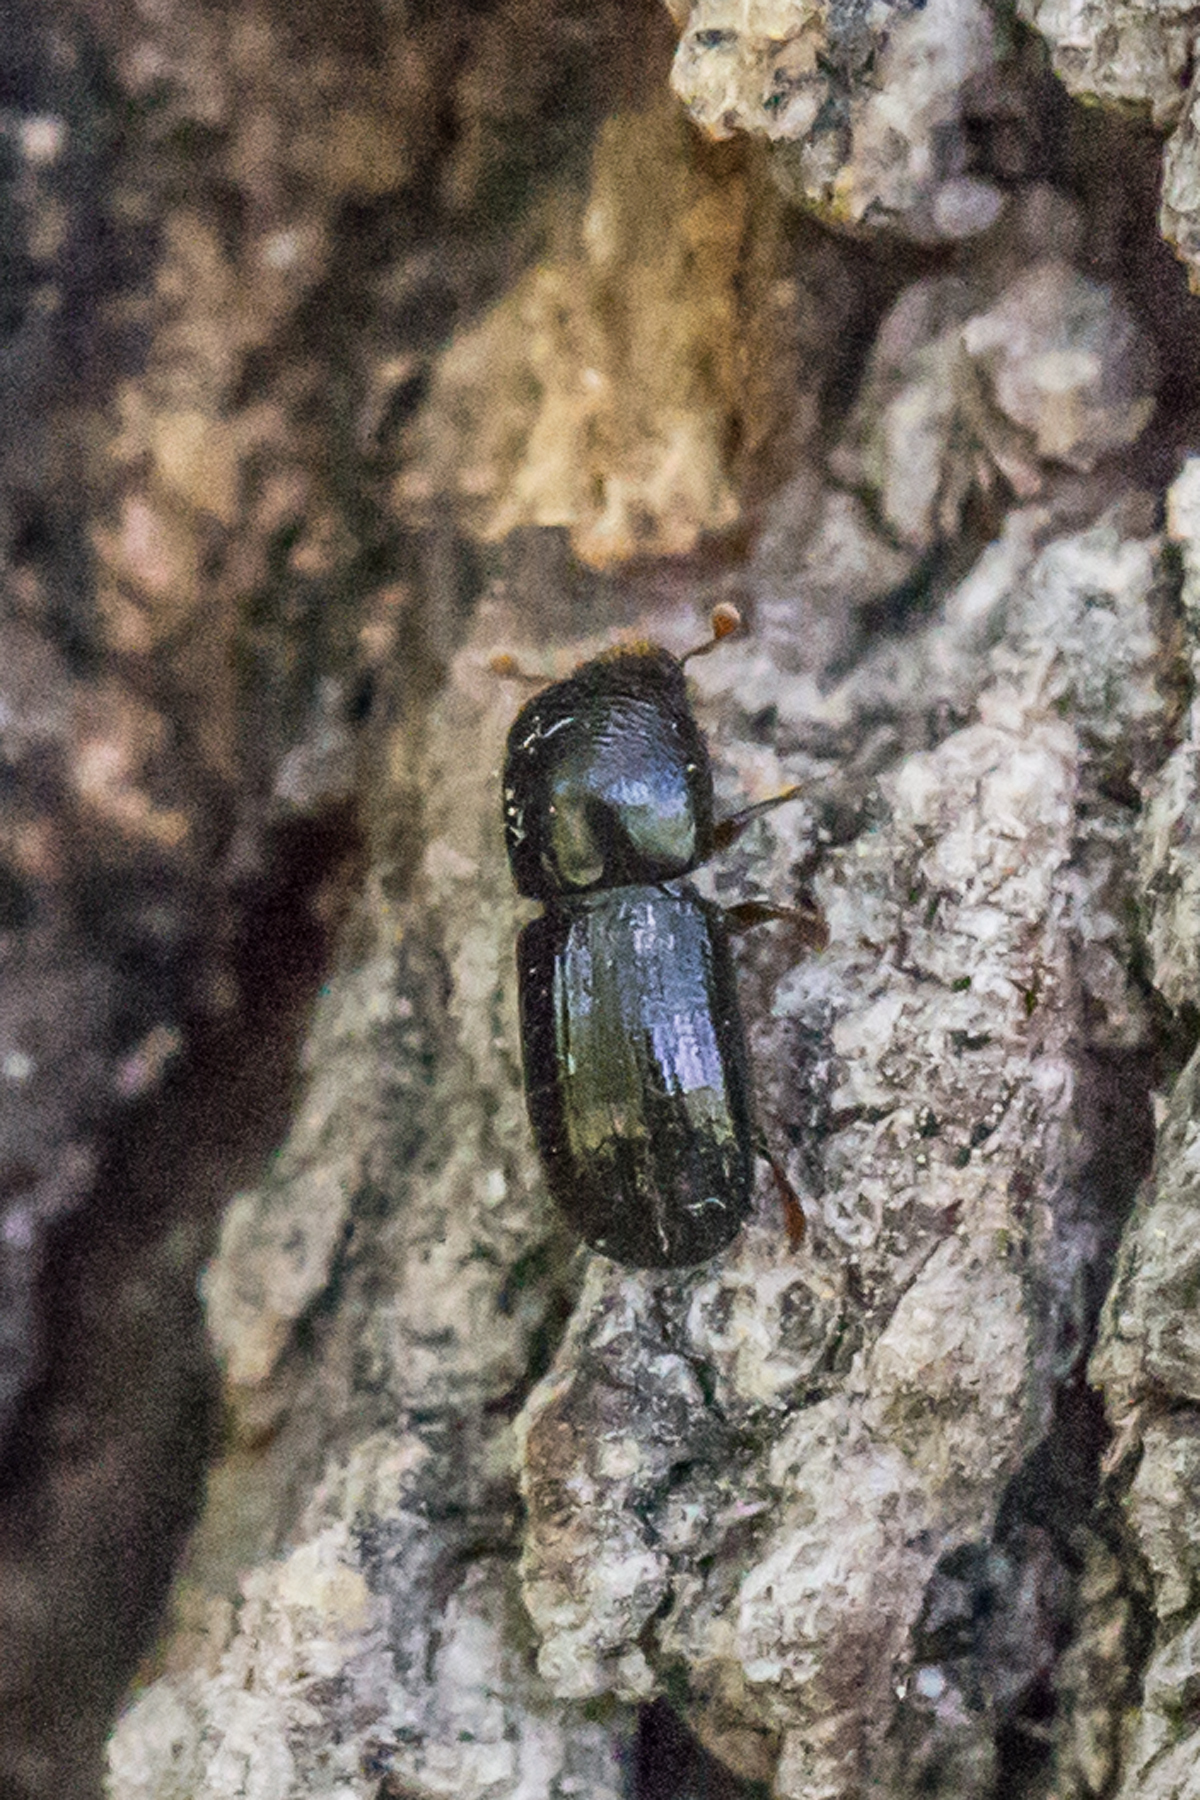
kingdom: Animalia
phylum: Arthropoda
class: Insecta
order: Coleoptera
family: Curculionidae
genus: Euwallacea
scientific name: Euwallacea validus
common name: Bark beetle
